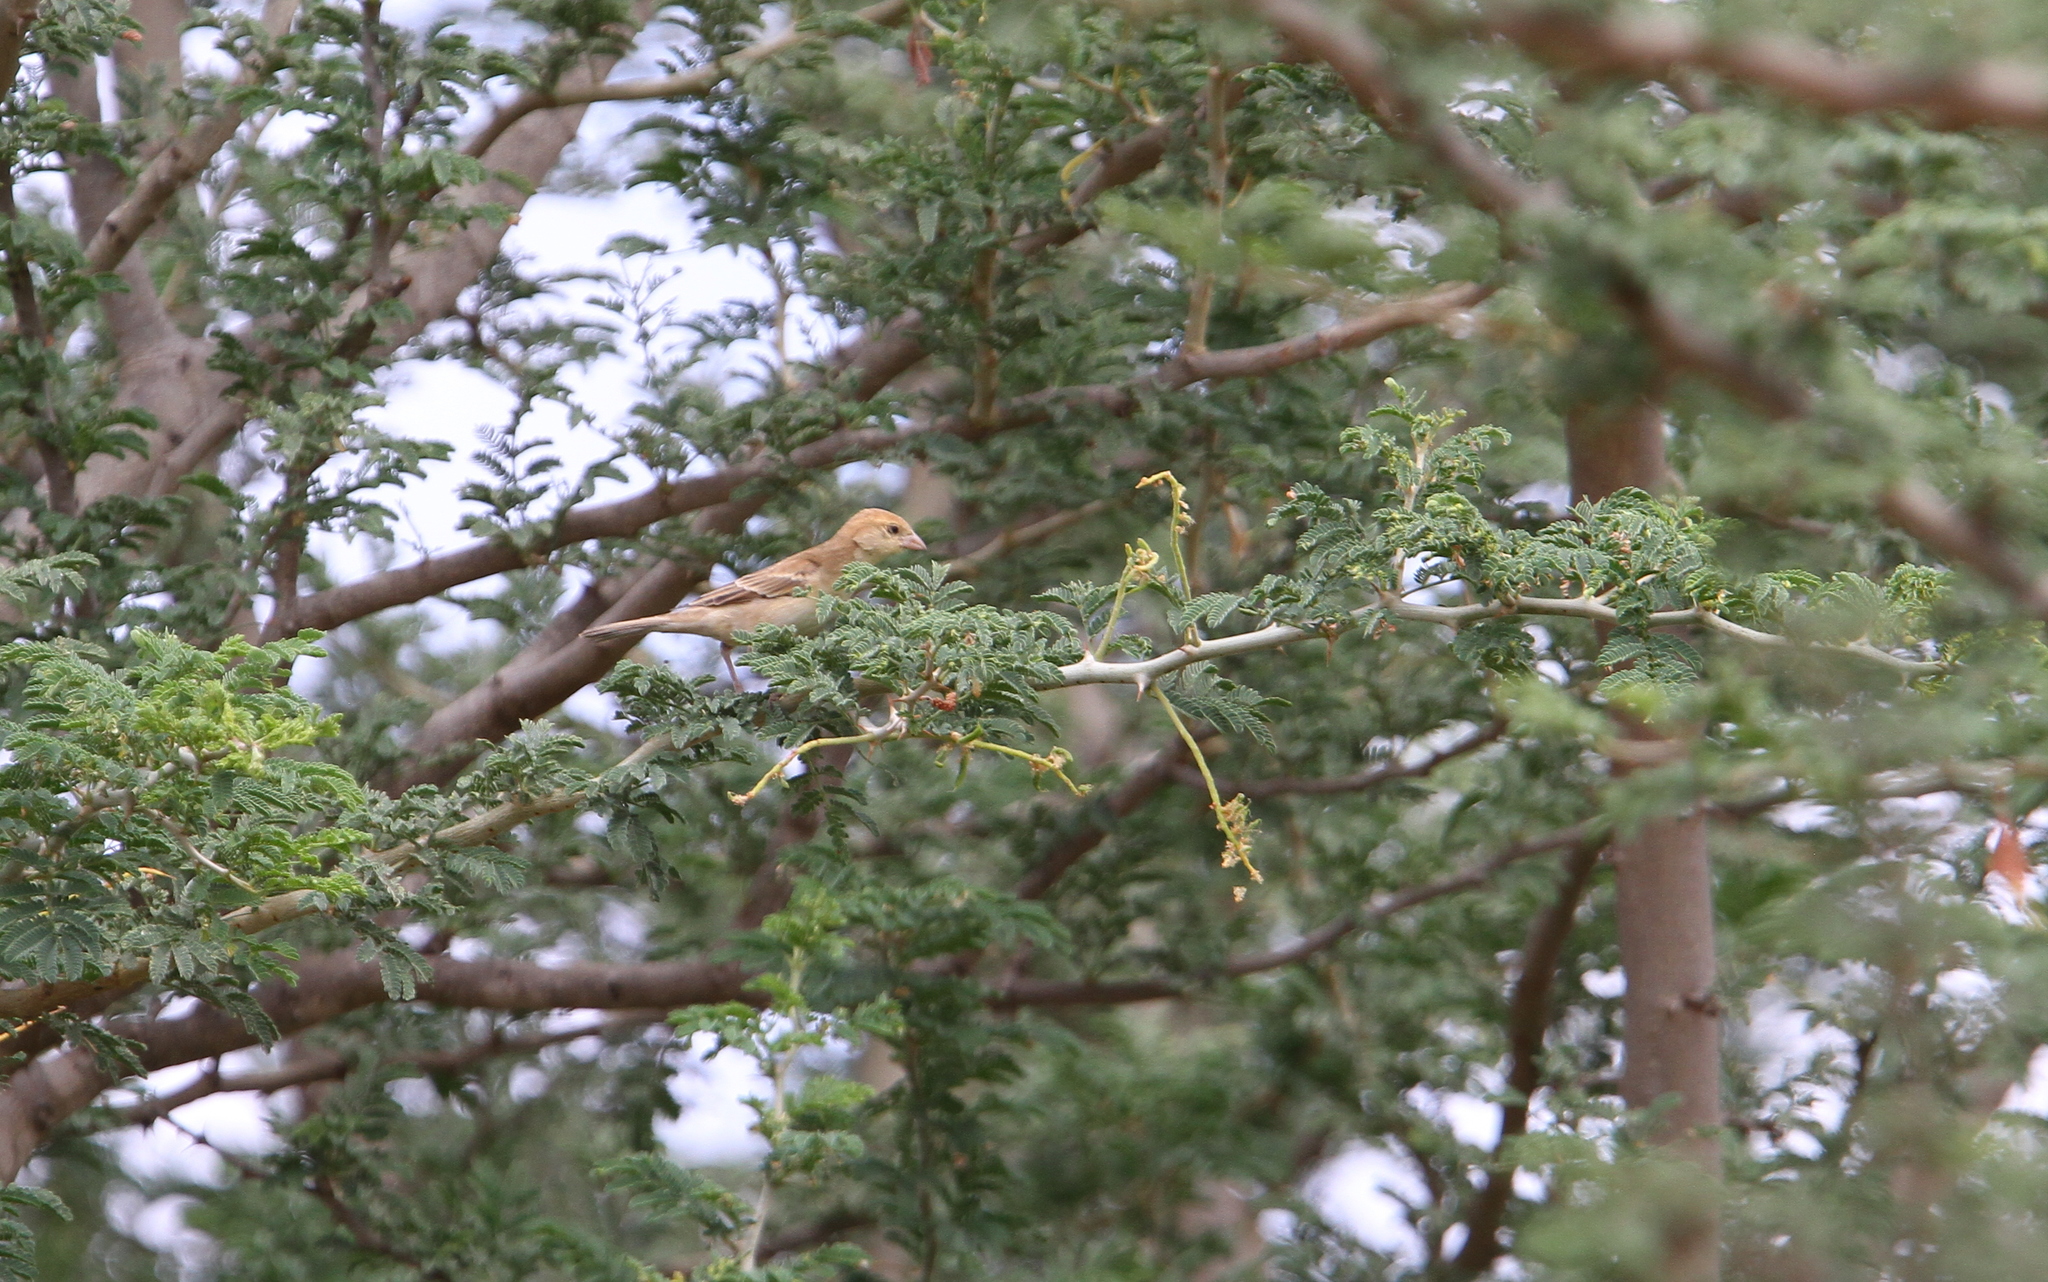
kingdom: Animalia
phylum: Chordata
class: Aves
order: Passeriformes
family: Passeridae
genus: Passer
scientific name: Passer luteus
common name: Sudan golden sparrow
